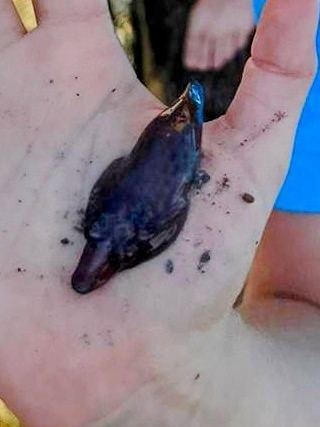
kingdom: Animalia
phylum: Chordata
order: Gobiesociformes
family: Gobiesocidae
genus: Lepadogaster
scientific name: Lepadogaster purpurea
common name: Cornish sucker
